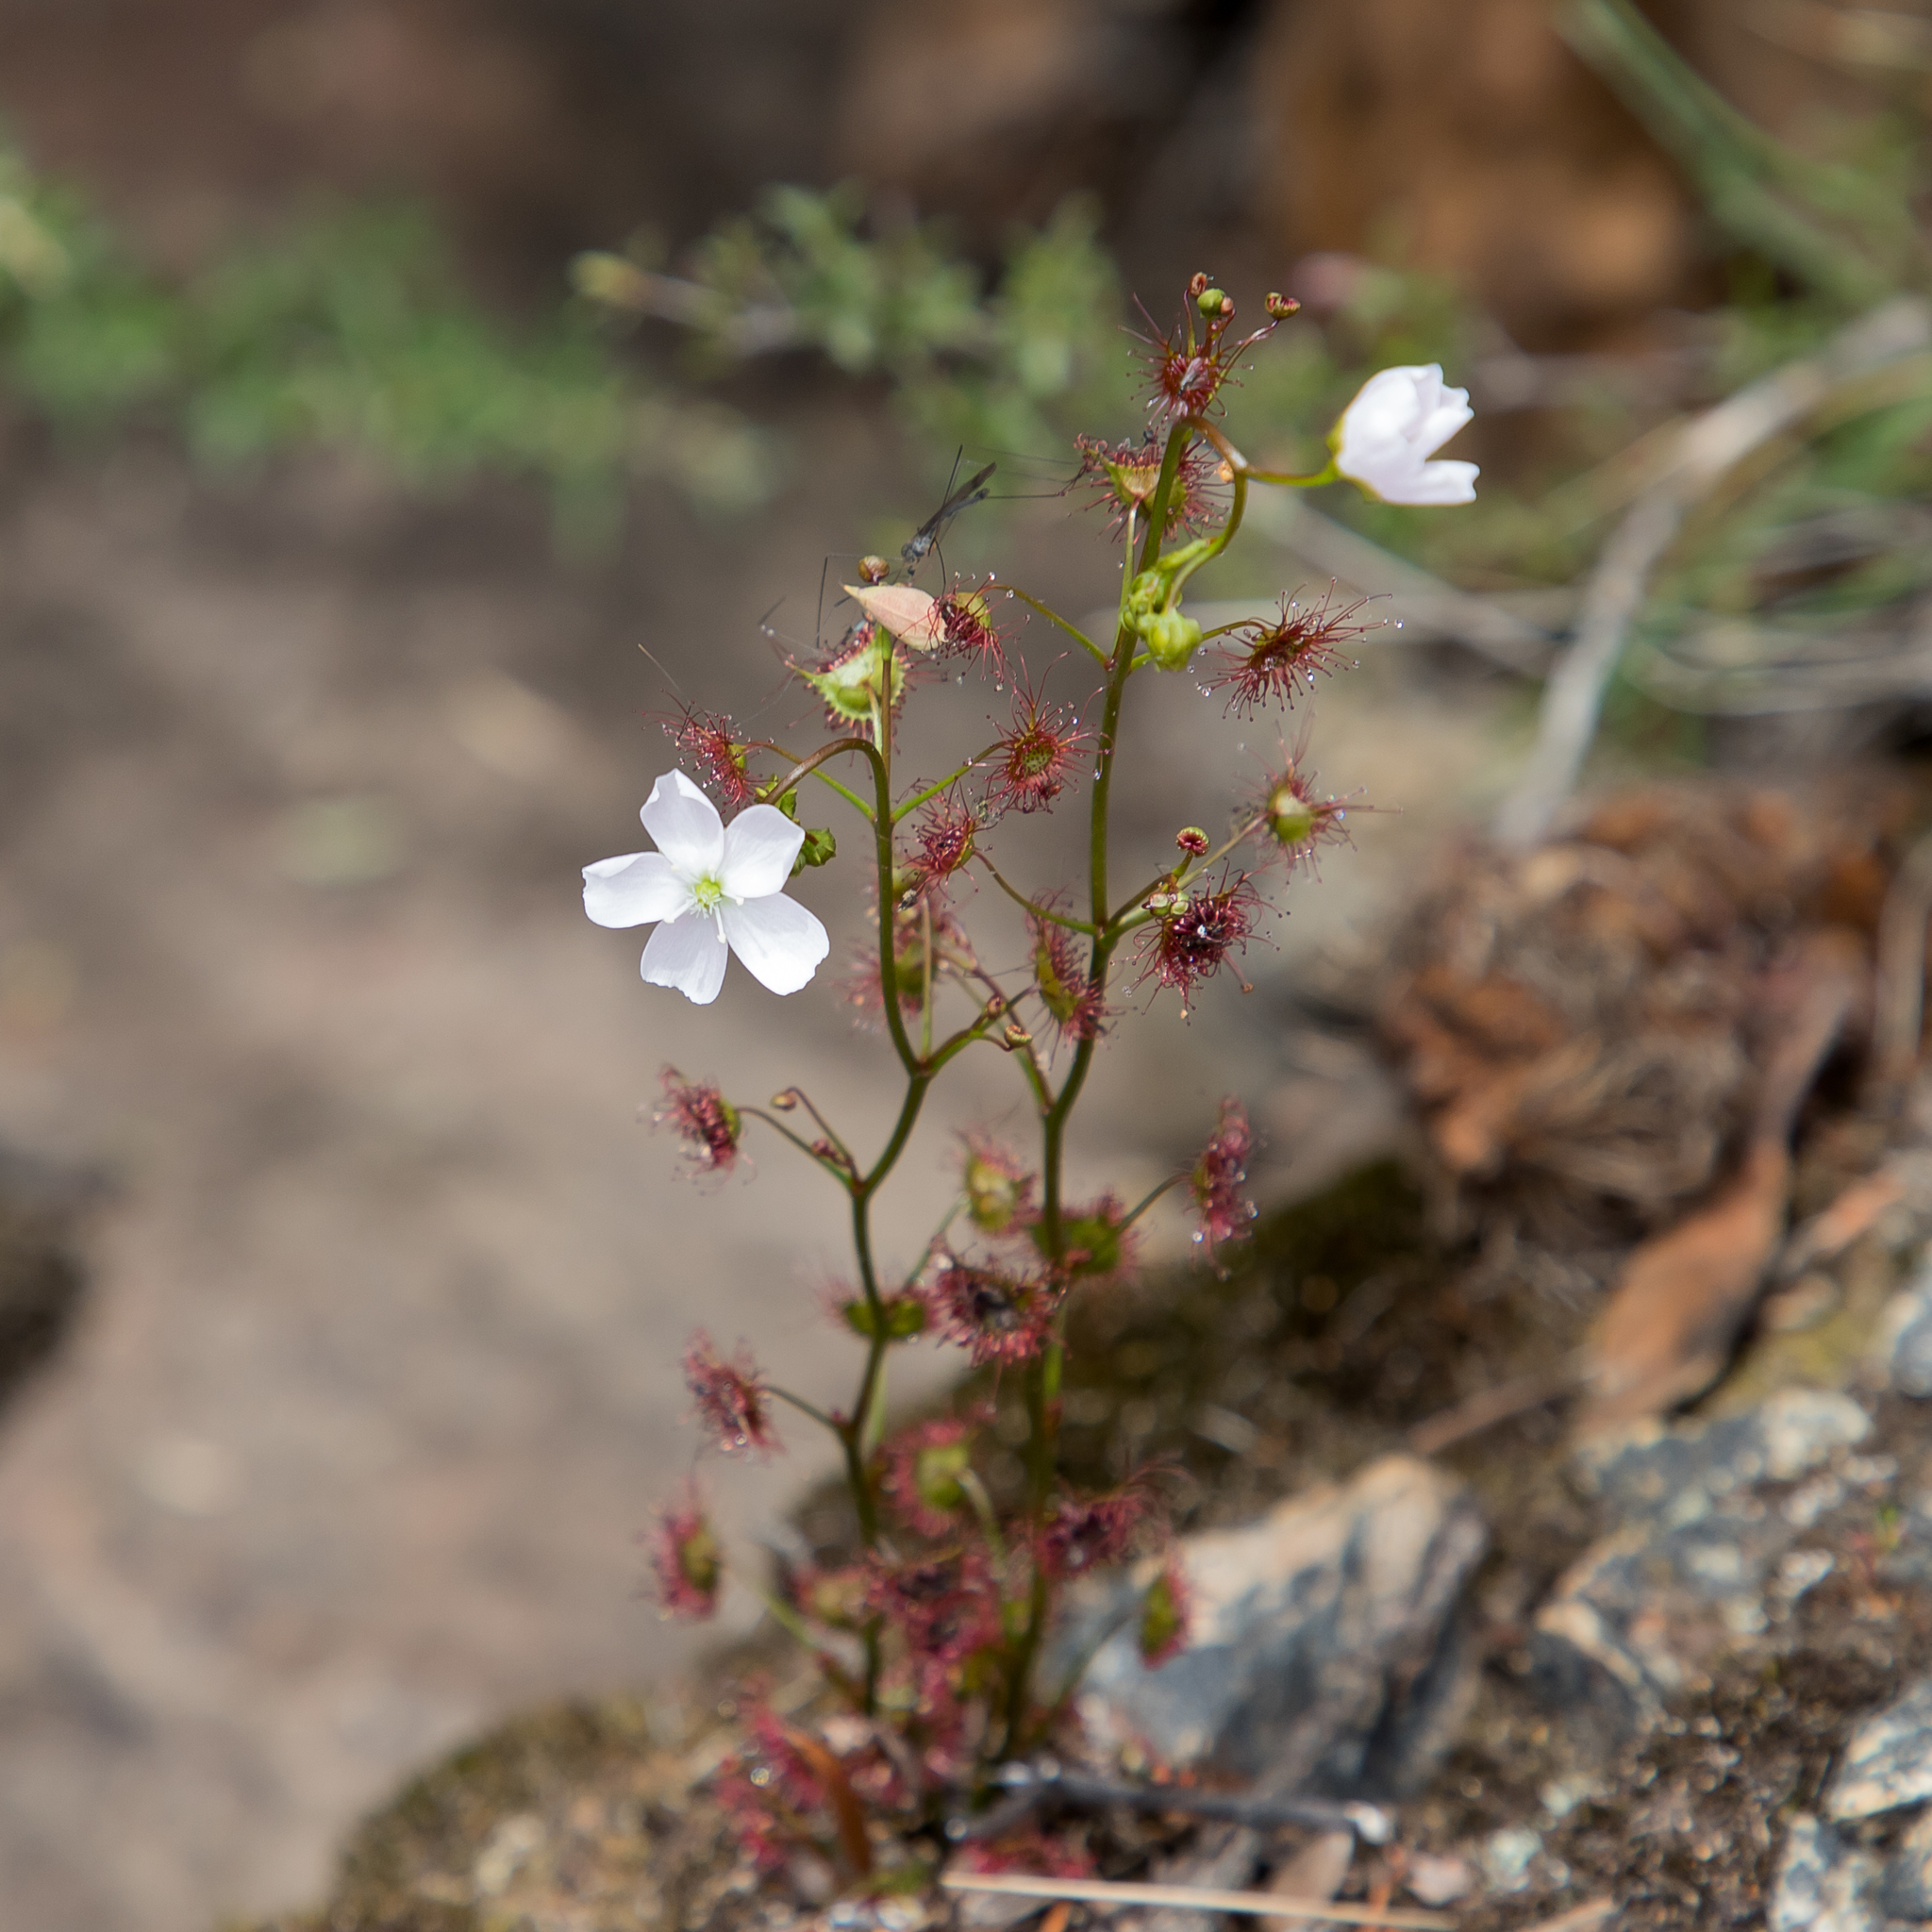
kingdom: Plantae
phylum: Tracheophyta
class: Magnoliopsida
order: Caryophyllales
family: Droseraceae
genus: Drosera
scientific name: Drosera peltata
